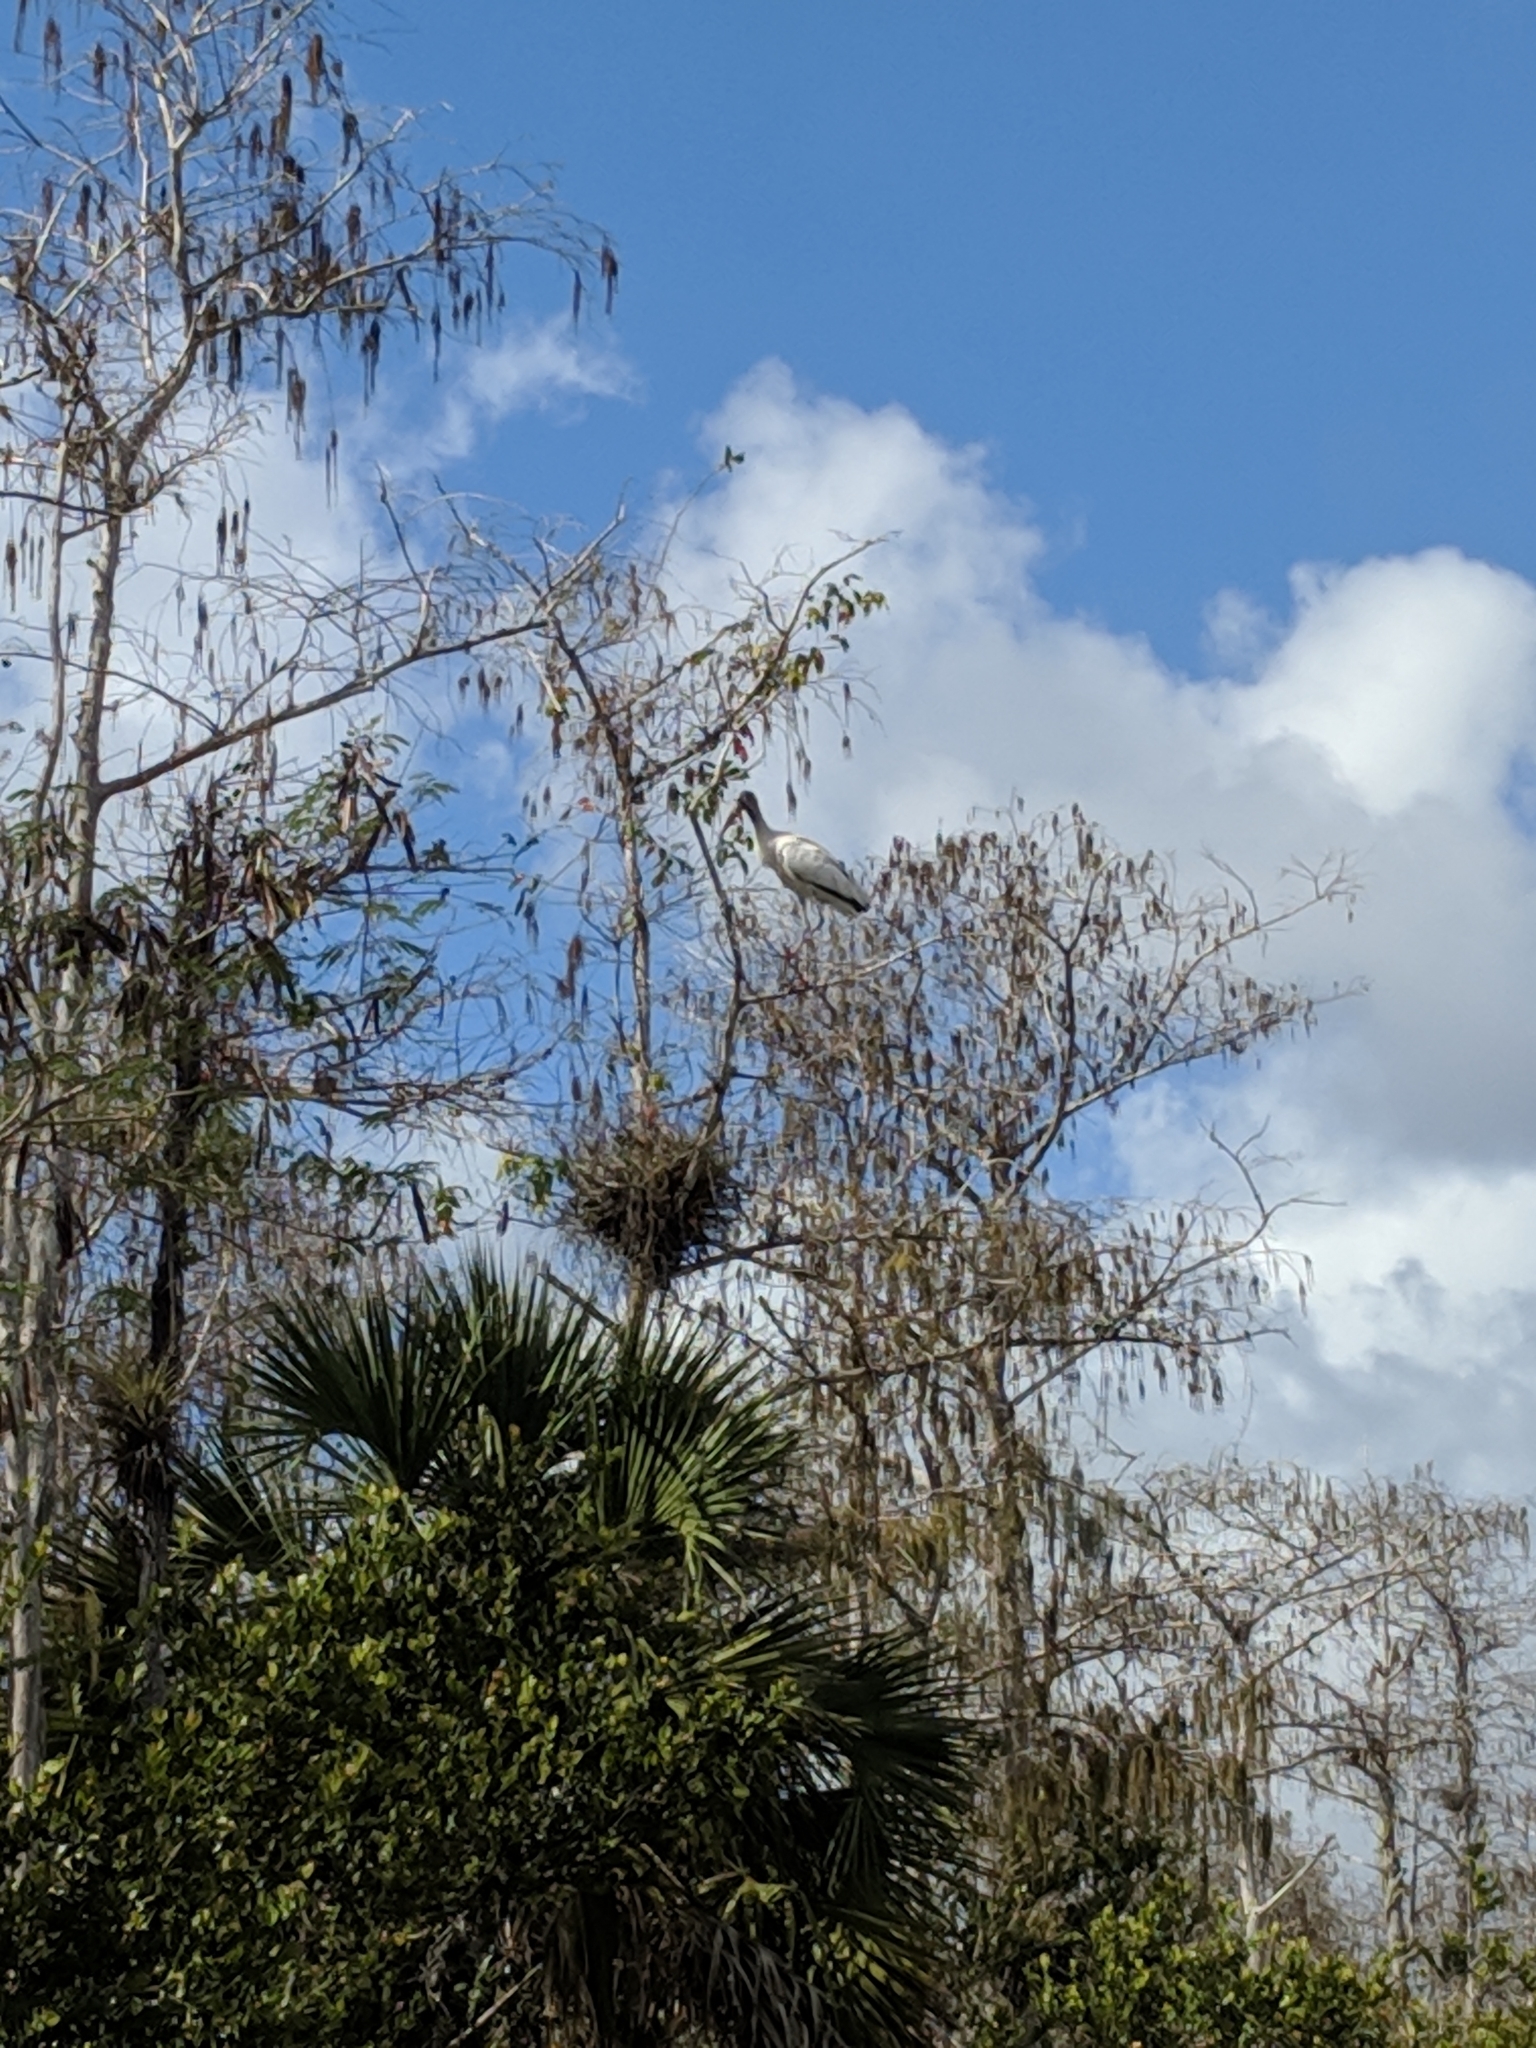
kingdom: Animalia
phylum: Chordata
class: Aves
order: Ciconiiformes
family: Ciconiidae
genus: Mycteria
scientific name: Mycteria americana
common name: Wood stork
